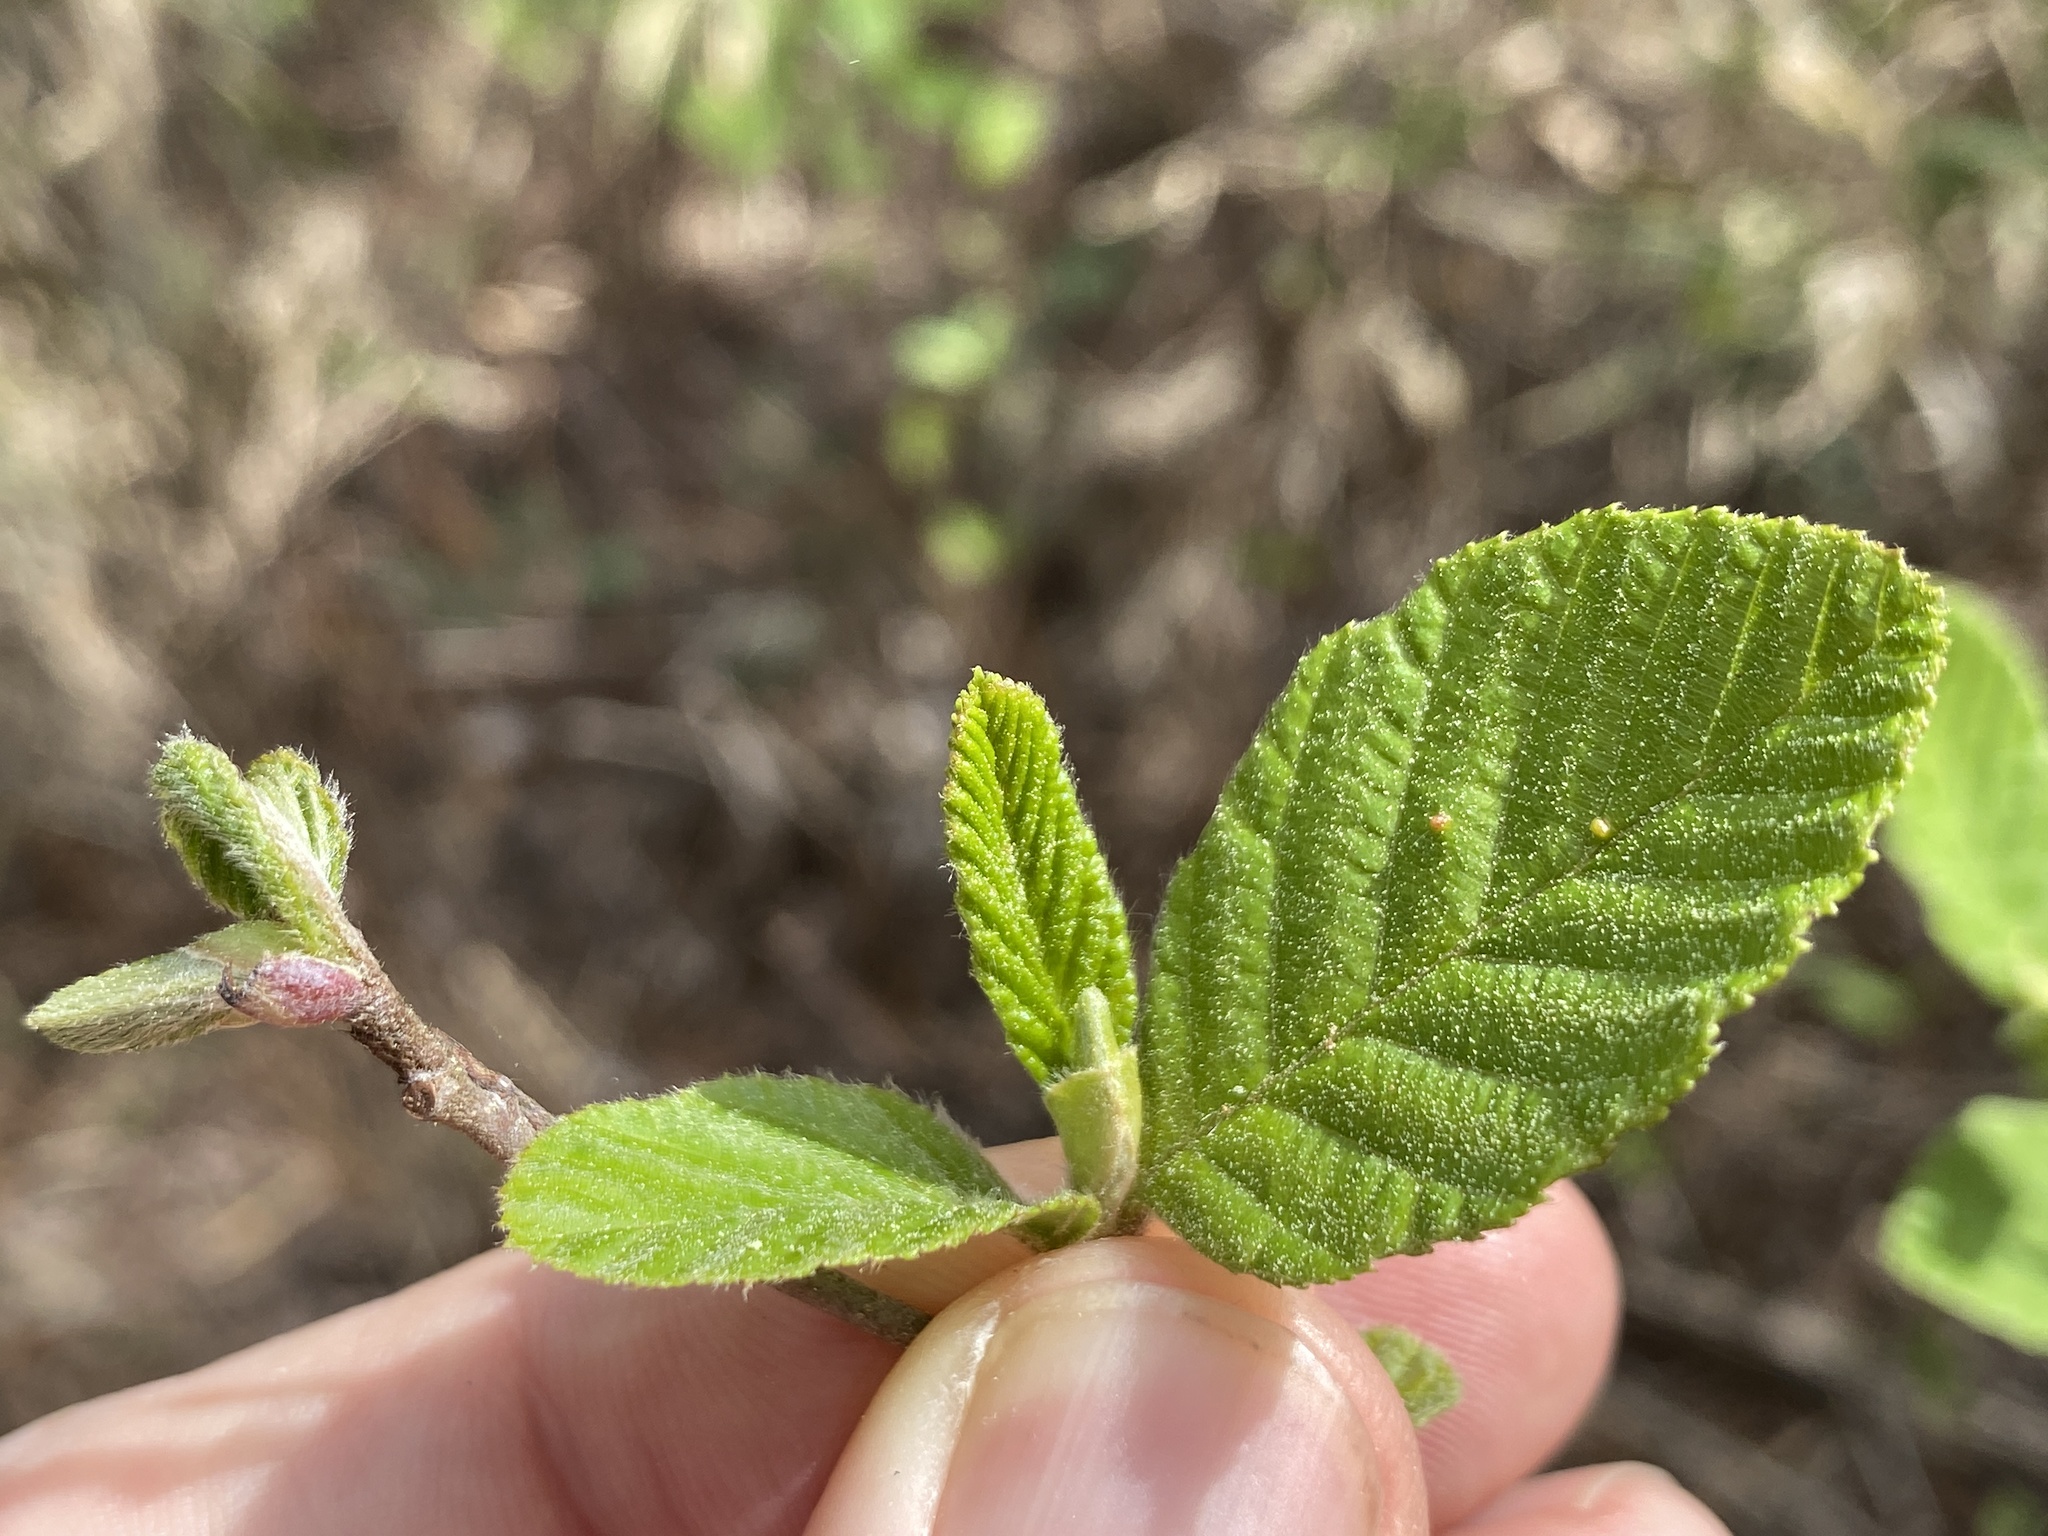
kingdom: Plantae
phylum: Tracheophyta
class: Magnoliopsida
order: Fagales
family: Betulaceae
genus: Alnus
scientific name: Alnus serrulata
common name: Hazel alder
